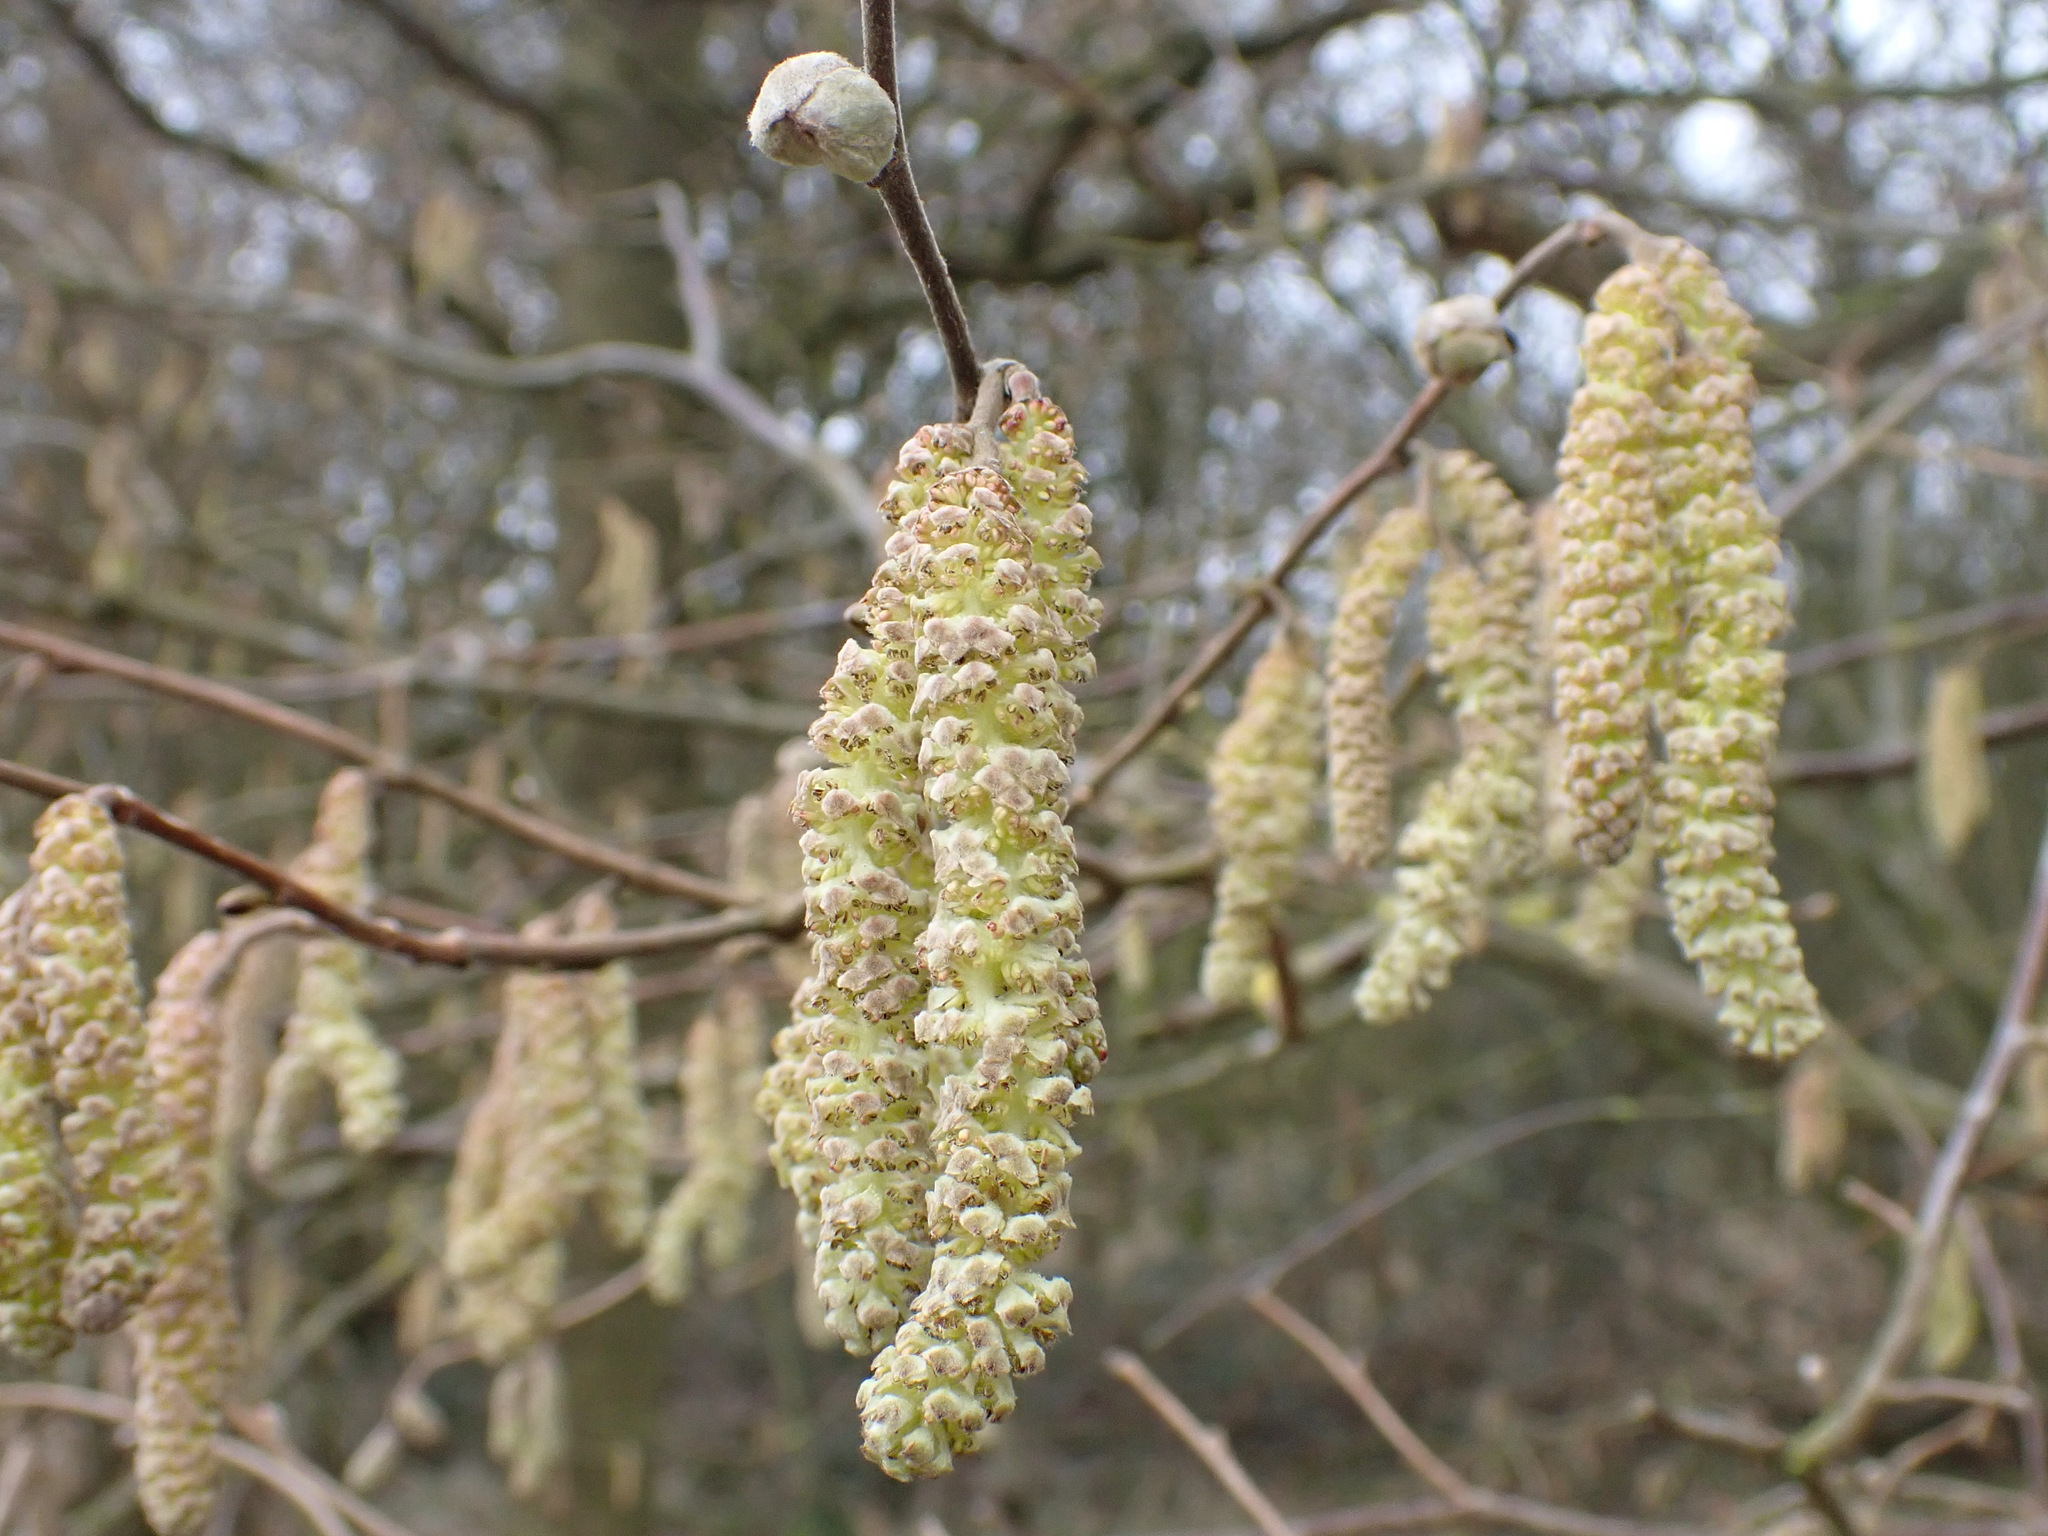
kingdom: Plantae
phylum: Tracheophyta
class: Magnoliopsida
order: Fagales
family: Betulaceae
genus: Corylus
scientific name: Corylus avellana
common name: European hazel
